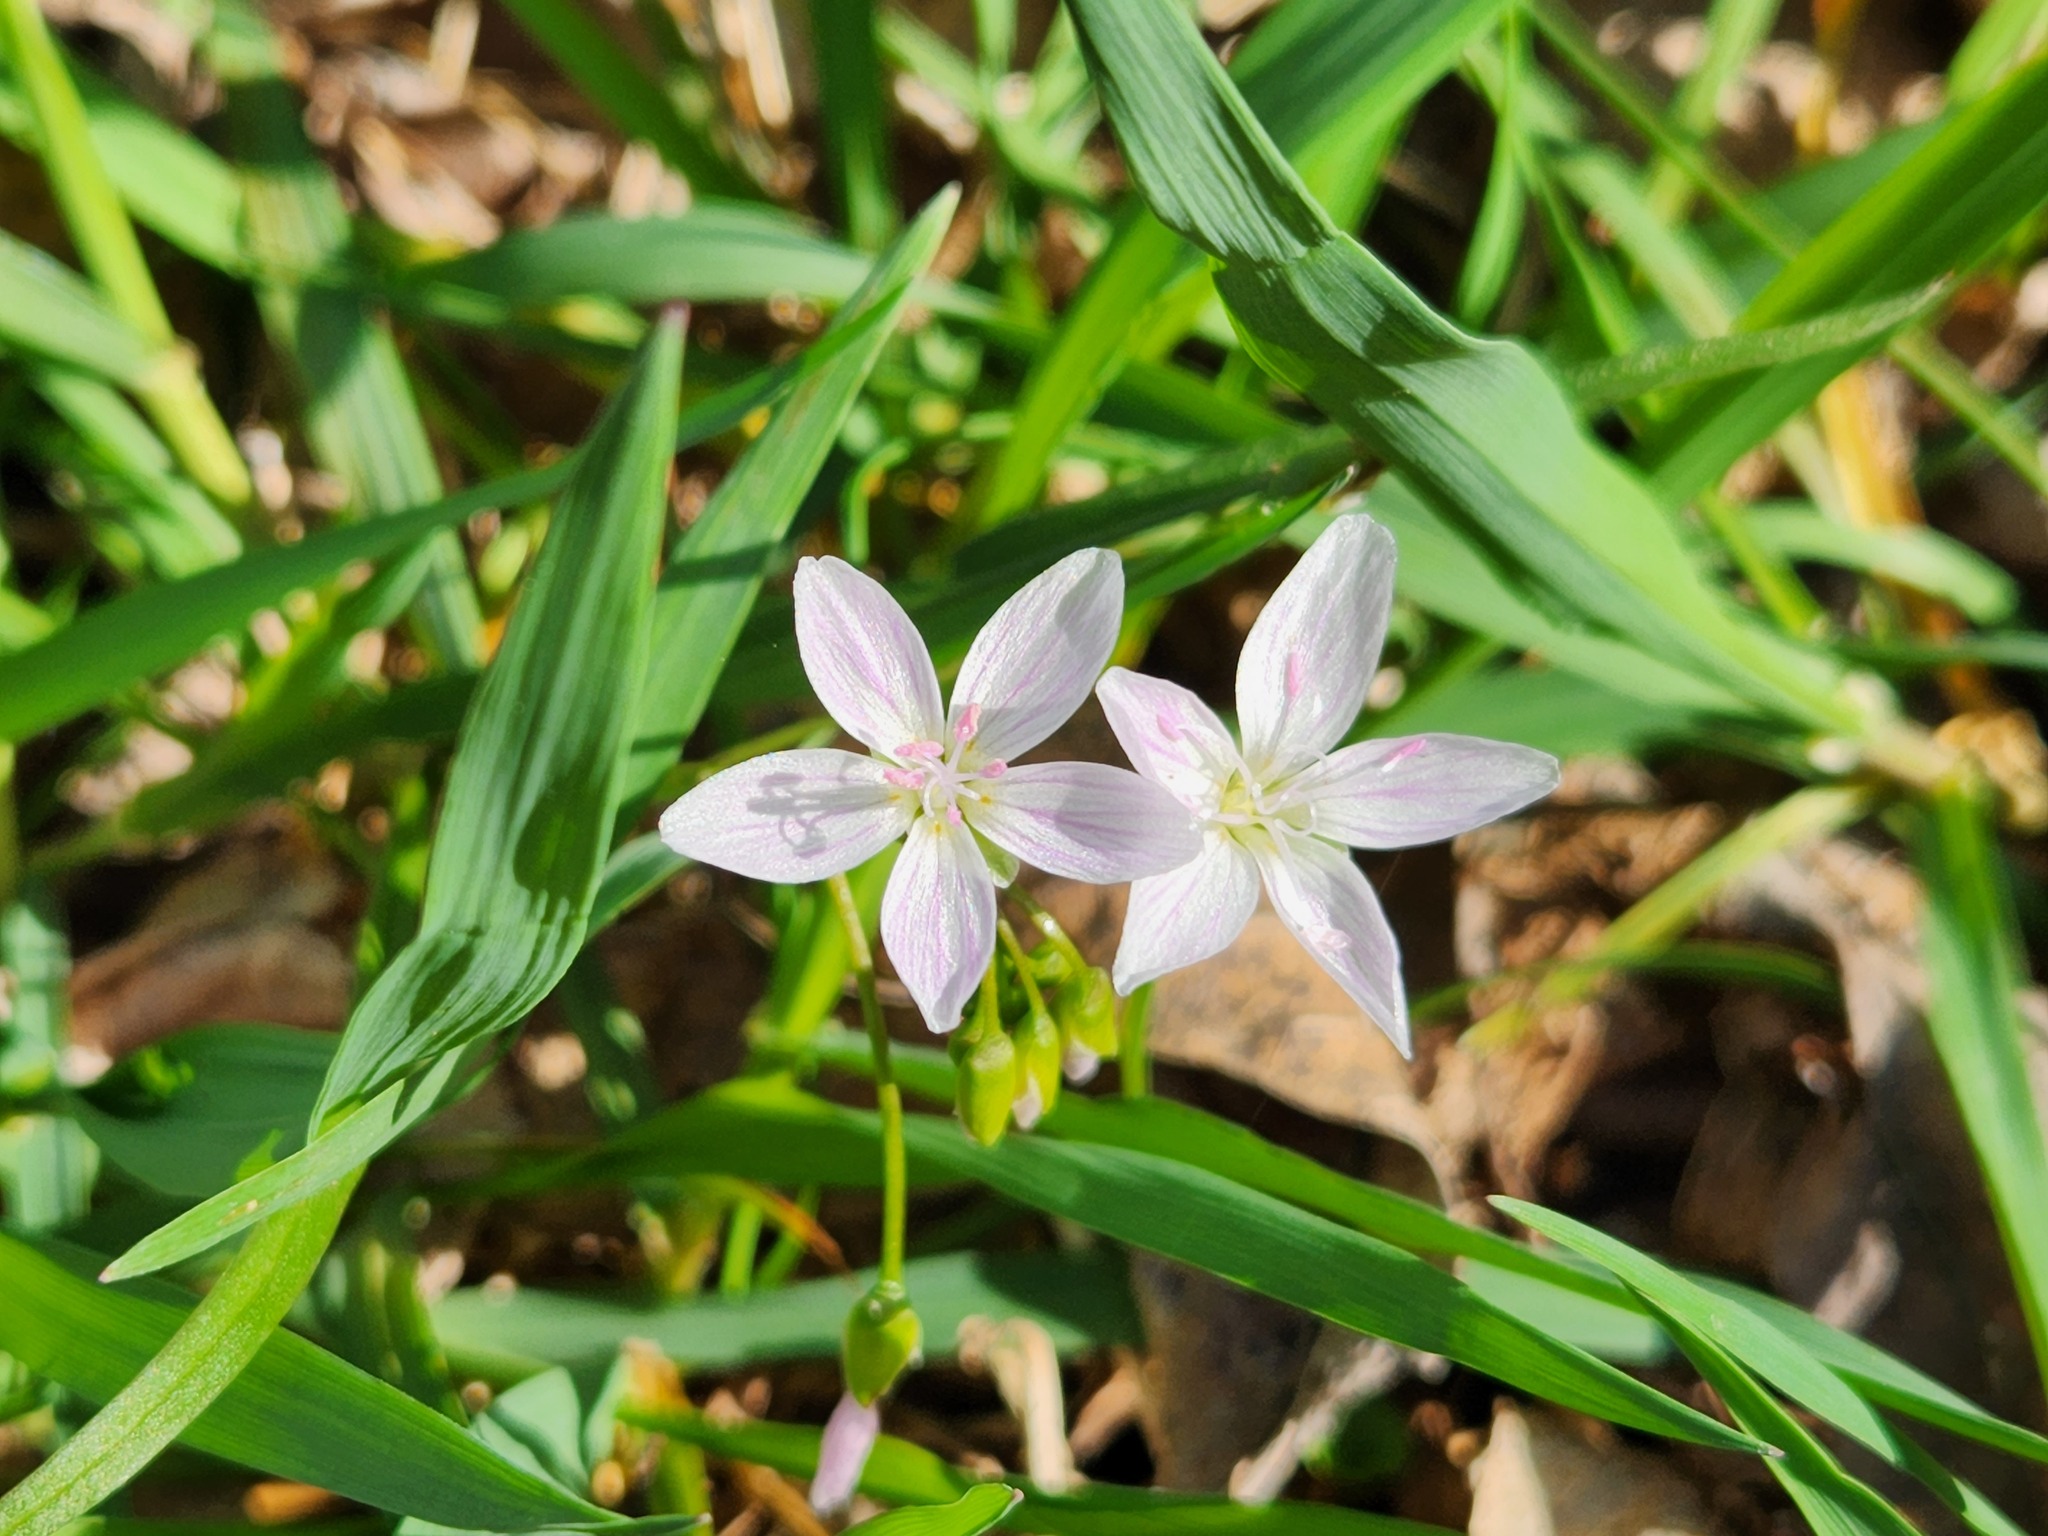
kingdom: Plantae
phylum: Tracheophyta
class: Magnoliopsida
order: Caryophyllales
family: Montiaceae
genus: Claytonia
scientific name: Claytonia virginica
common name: Virginia springbeauty
